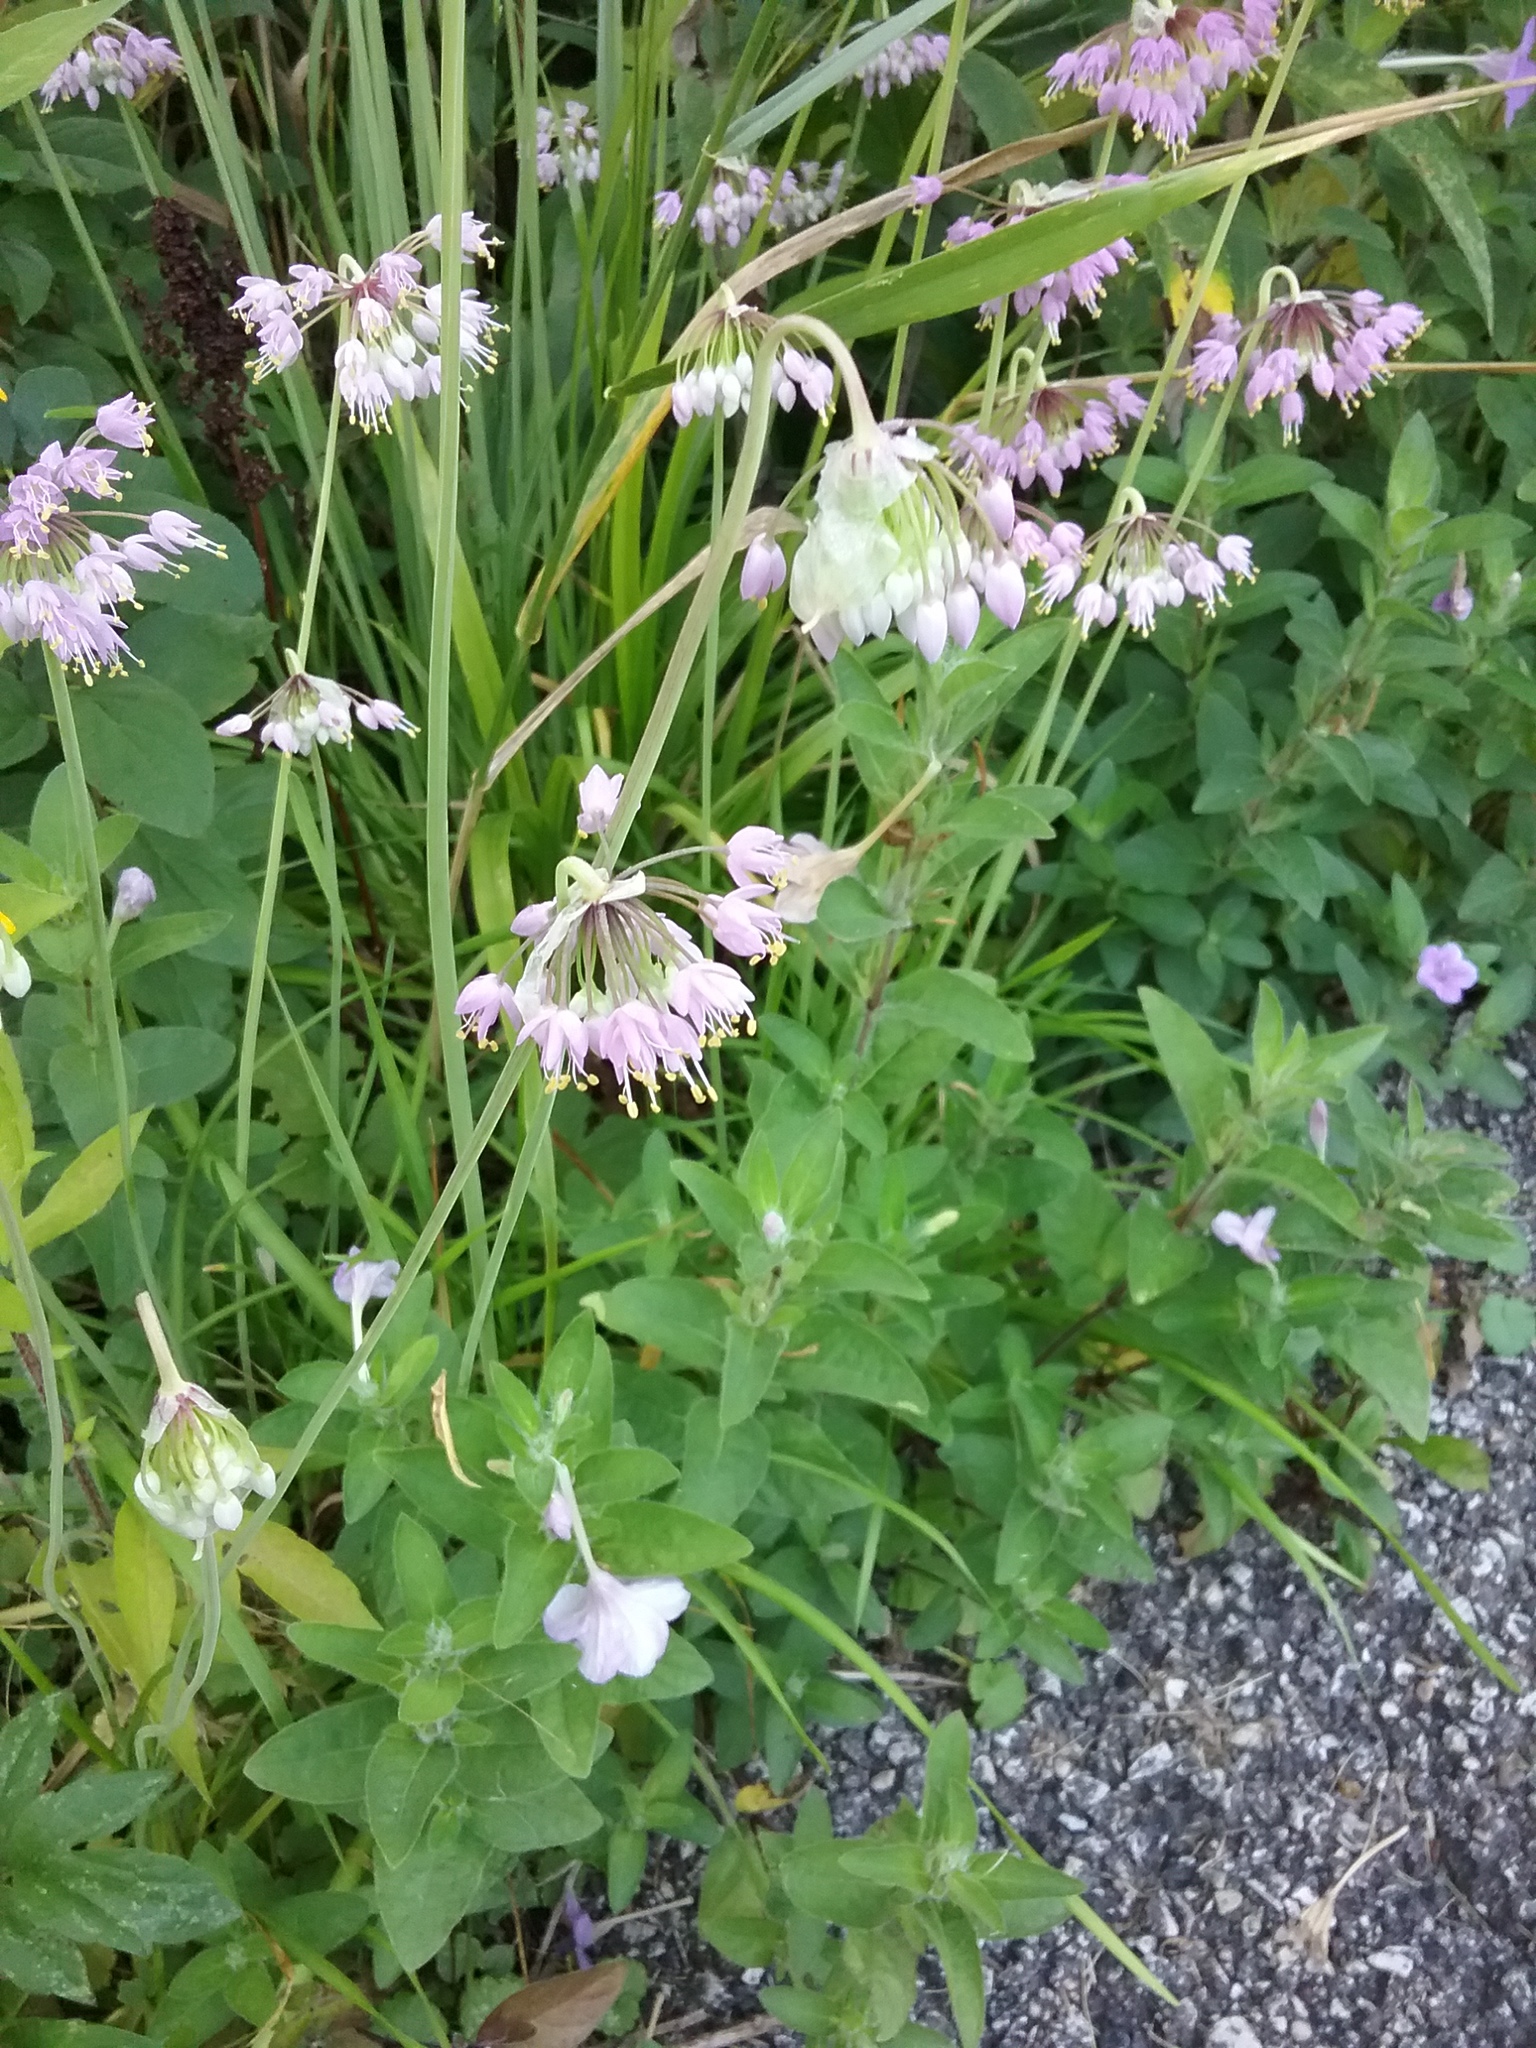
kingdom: Plantae
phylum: Tracheophyta
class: Liliopsida
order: Asparagales
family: Amaryllidaceae
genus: Allium
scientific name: Allium cernuum
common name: Nodding onion
